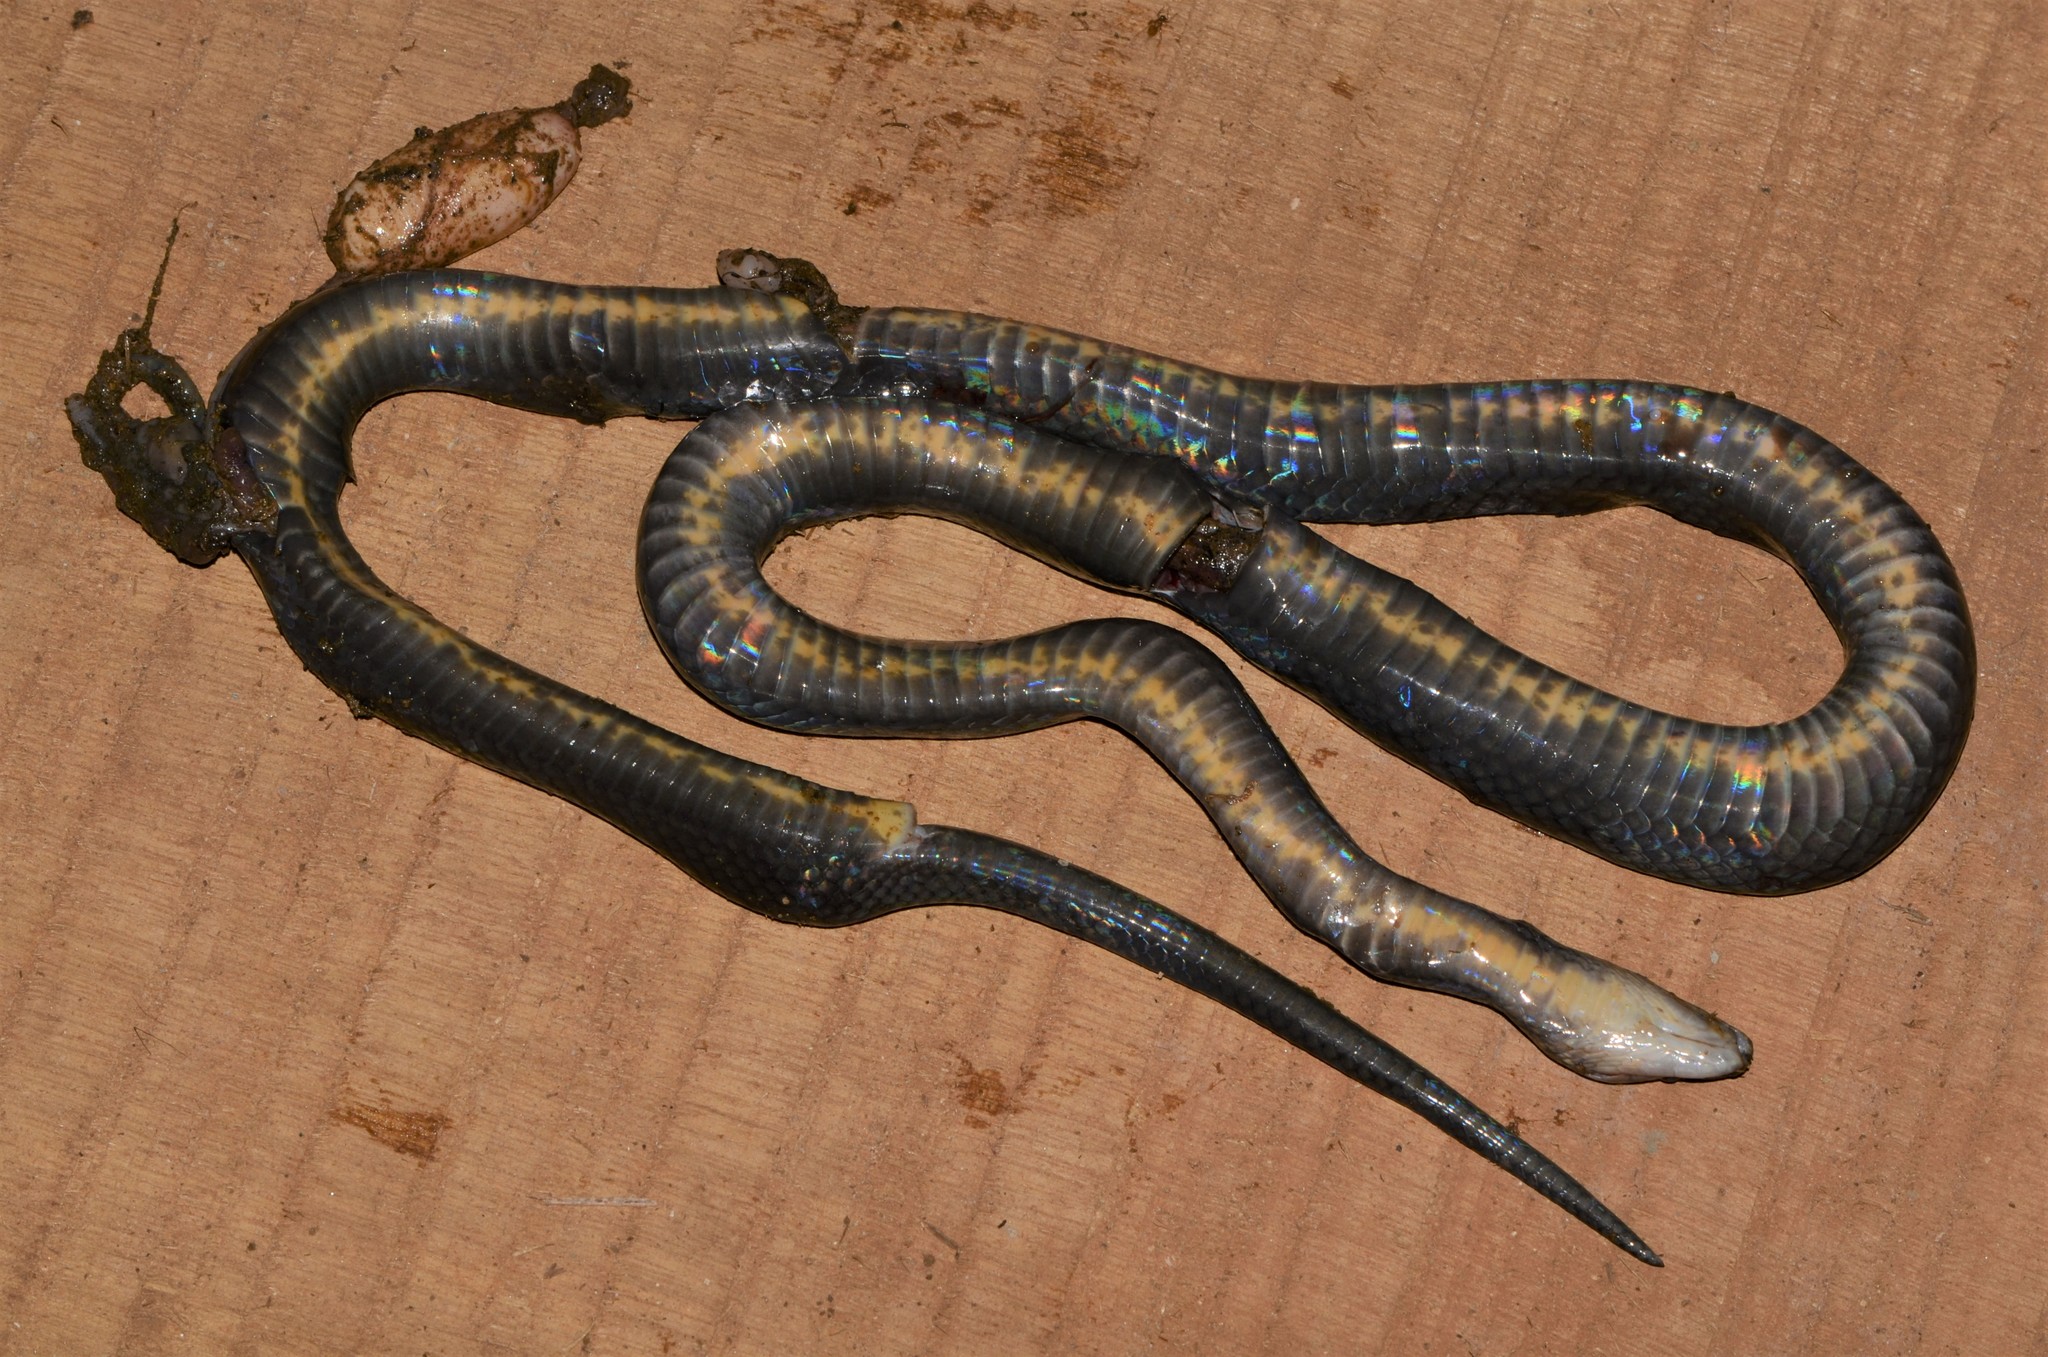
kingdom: Animalia
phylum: Chordata
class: Squamata
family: Lamprophiidae
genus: Boaedon
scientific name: Boaedon virgatus
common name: Hallowell's house snake
